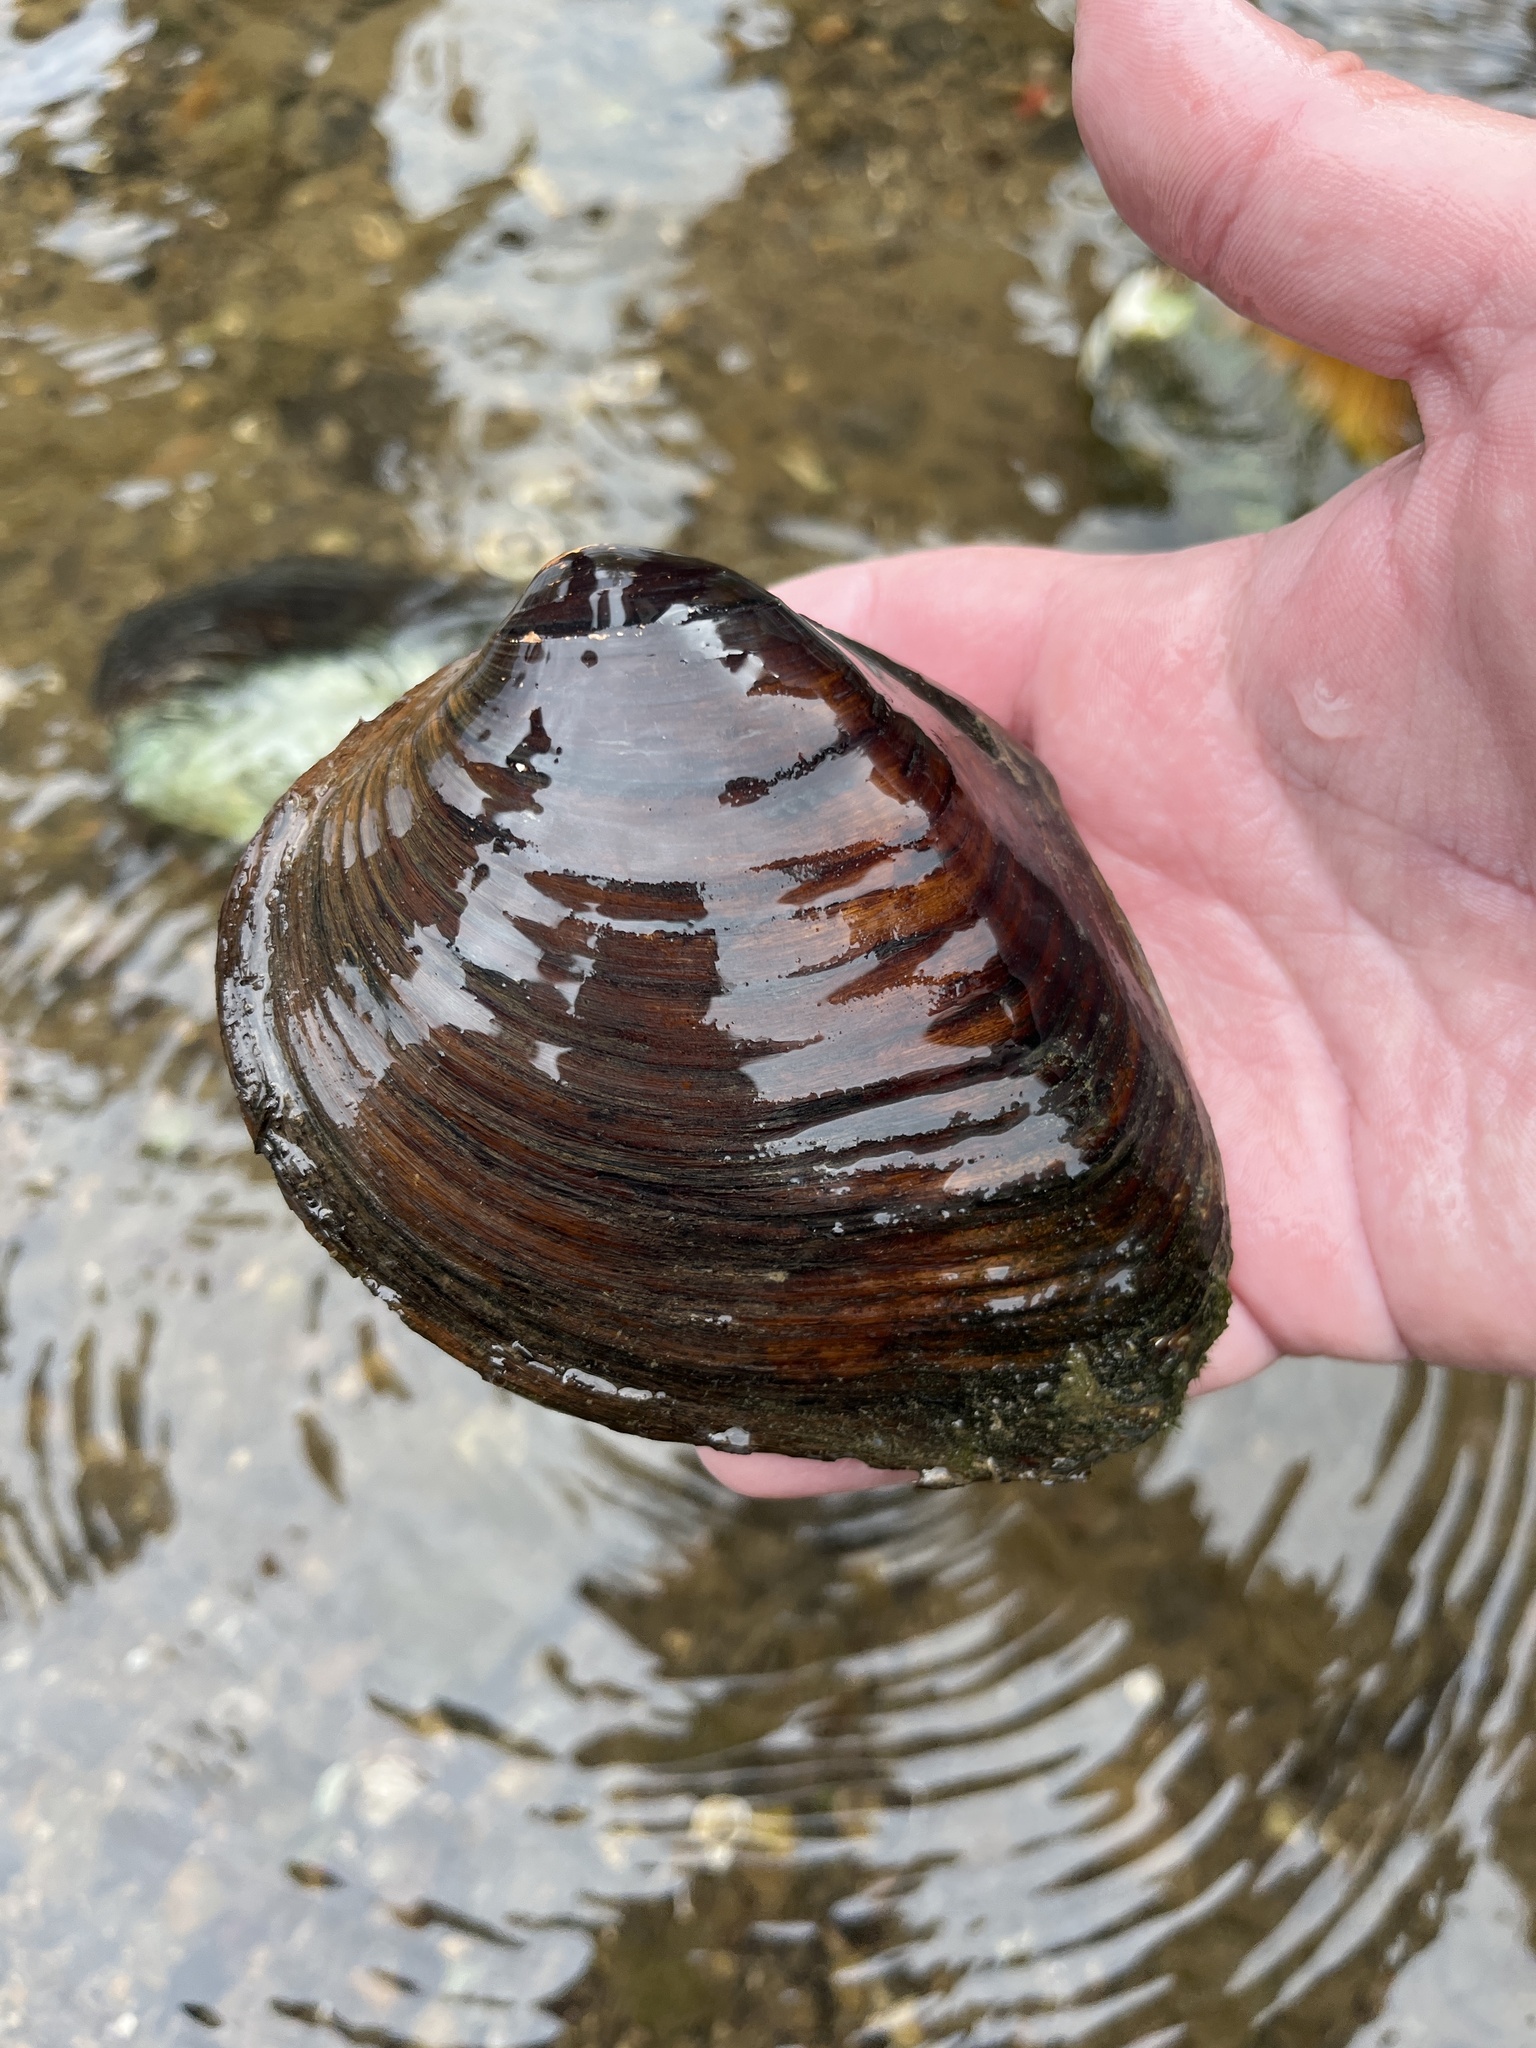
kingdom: Animalia
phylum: Mollusca
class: Bivalvia
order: Unionida
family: Unionidae
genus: Pleurobema
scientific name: Pleurobema sintoxia
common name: Round pigtoe
